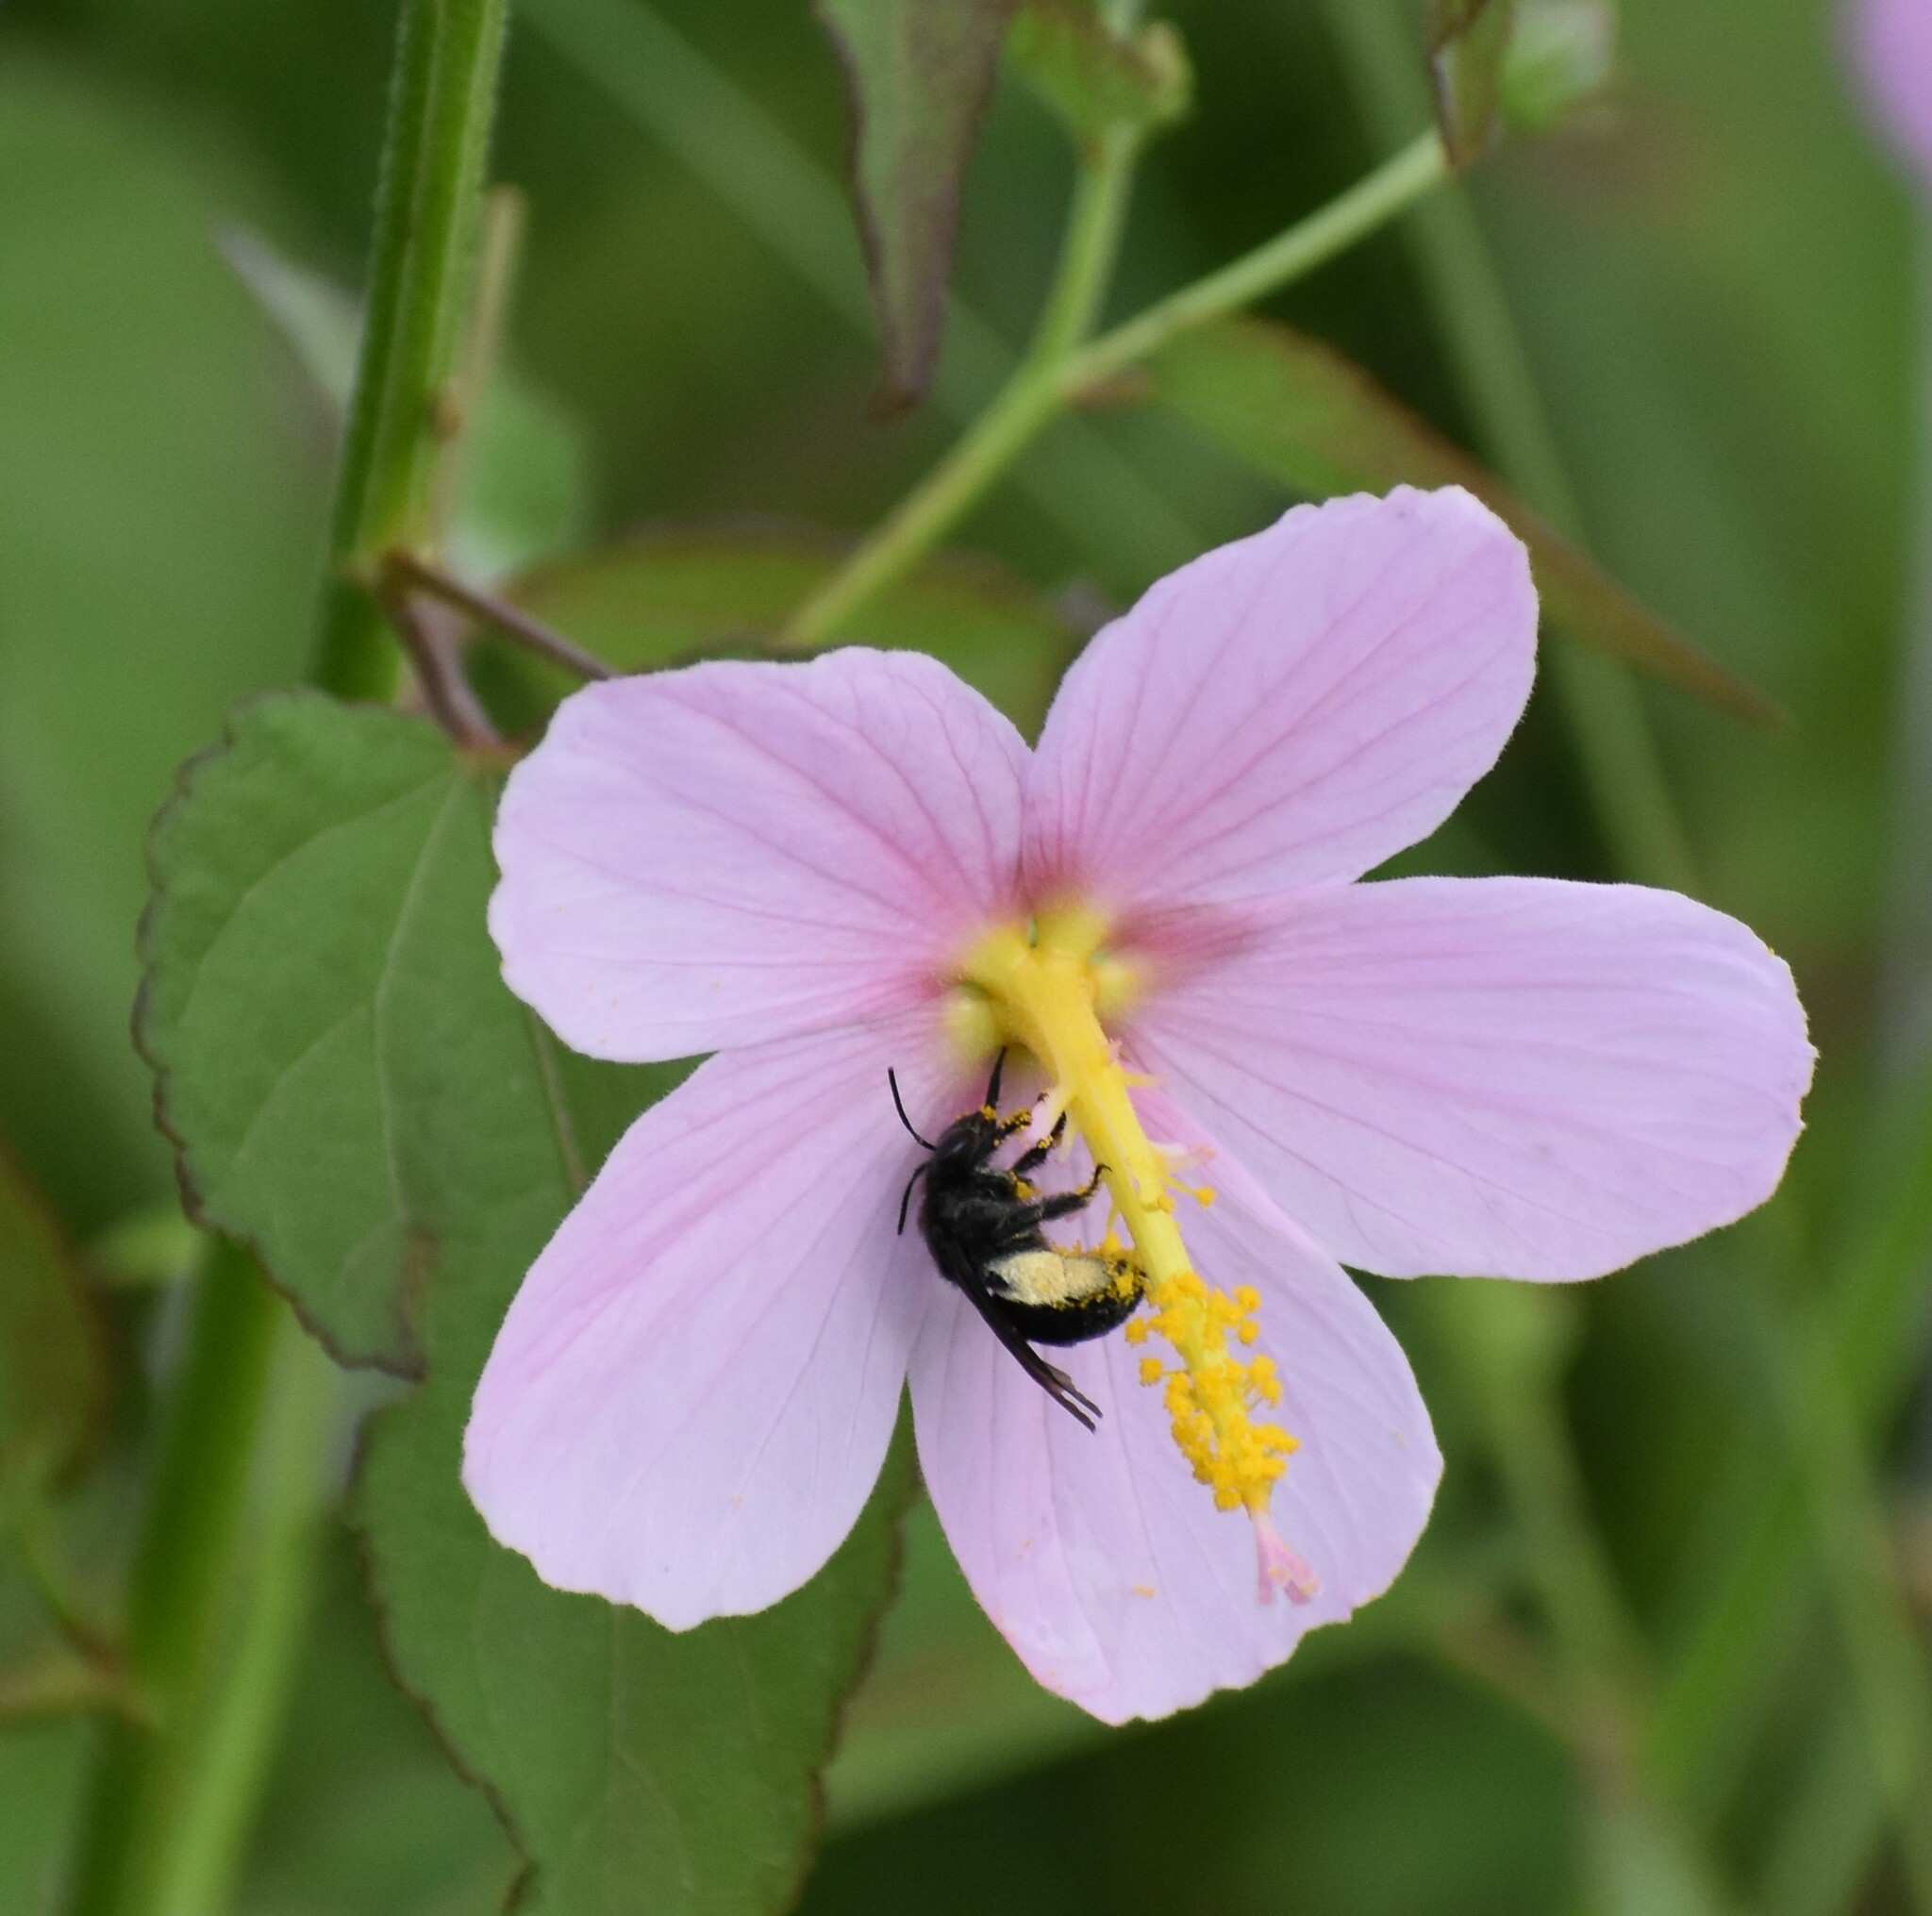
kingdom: Animalia
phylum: Arthropoda
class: Insecta
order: Hymenoptera
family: Apidae
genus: Melissodes
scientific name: Melissodes bimaculatus
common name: Two-spotted long-horned bee
